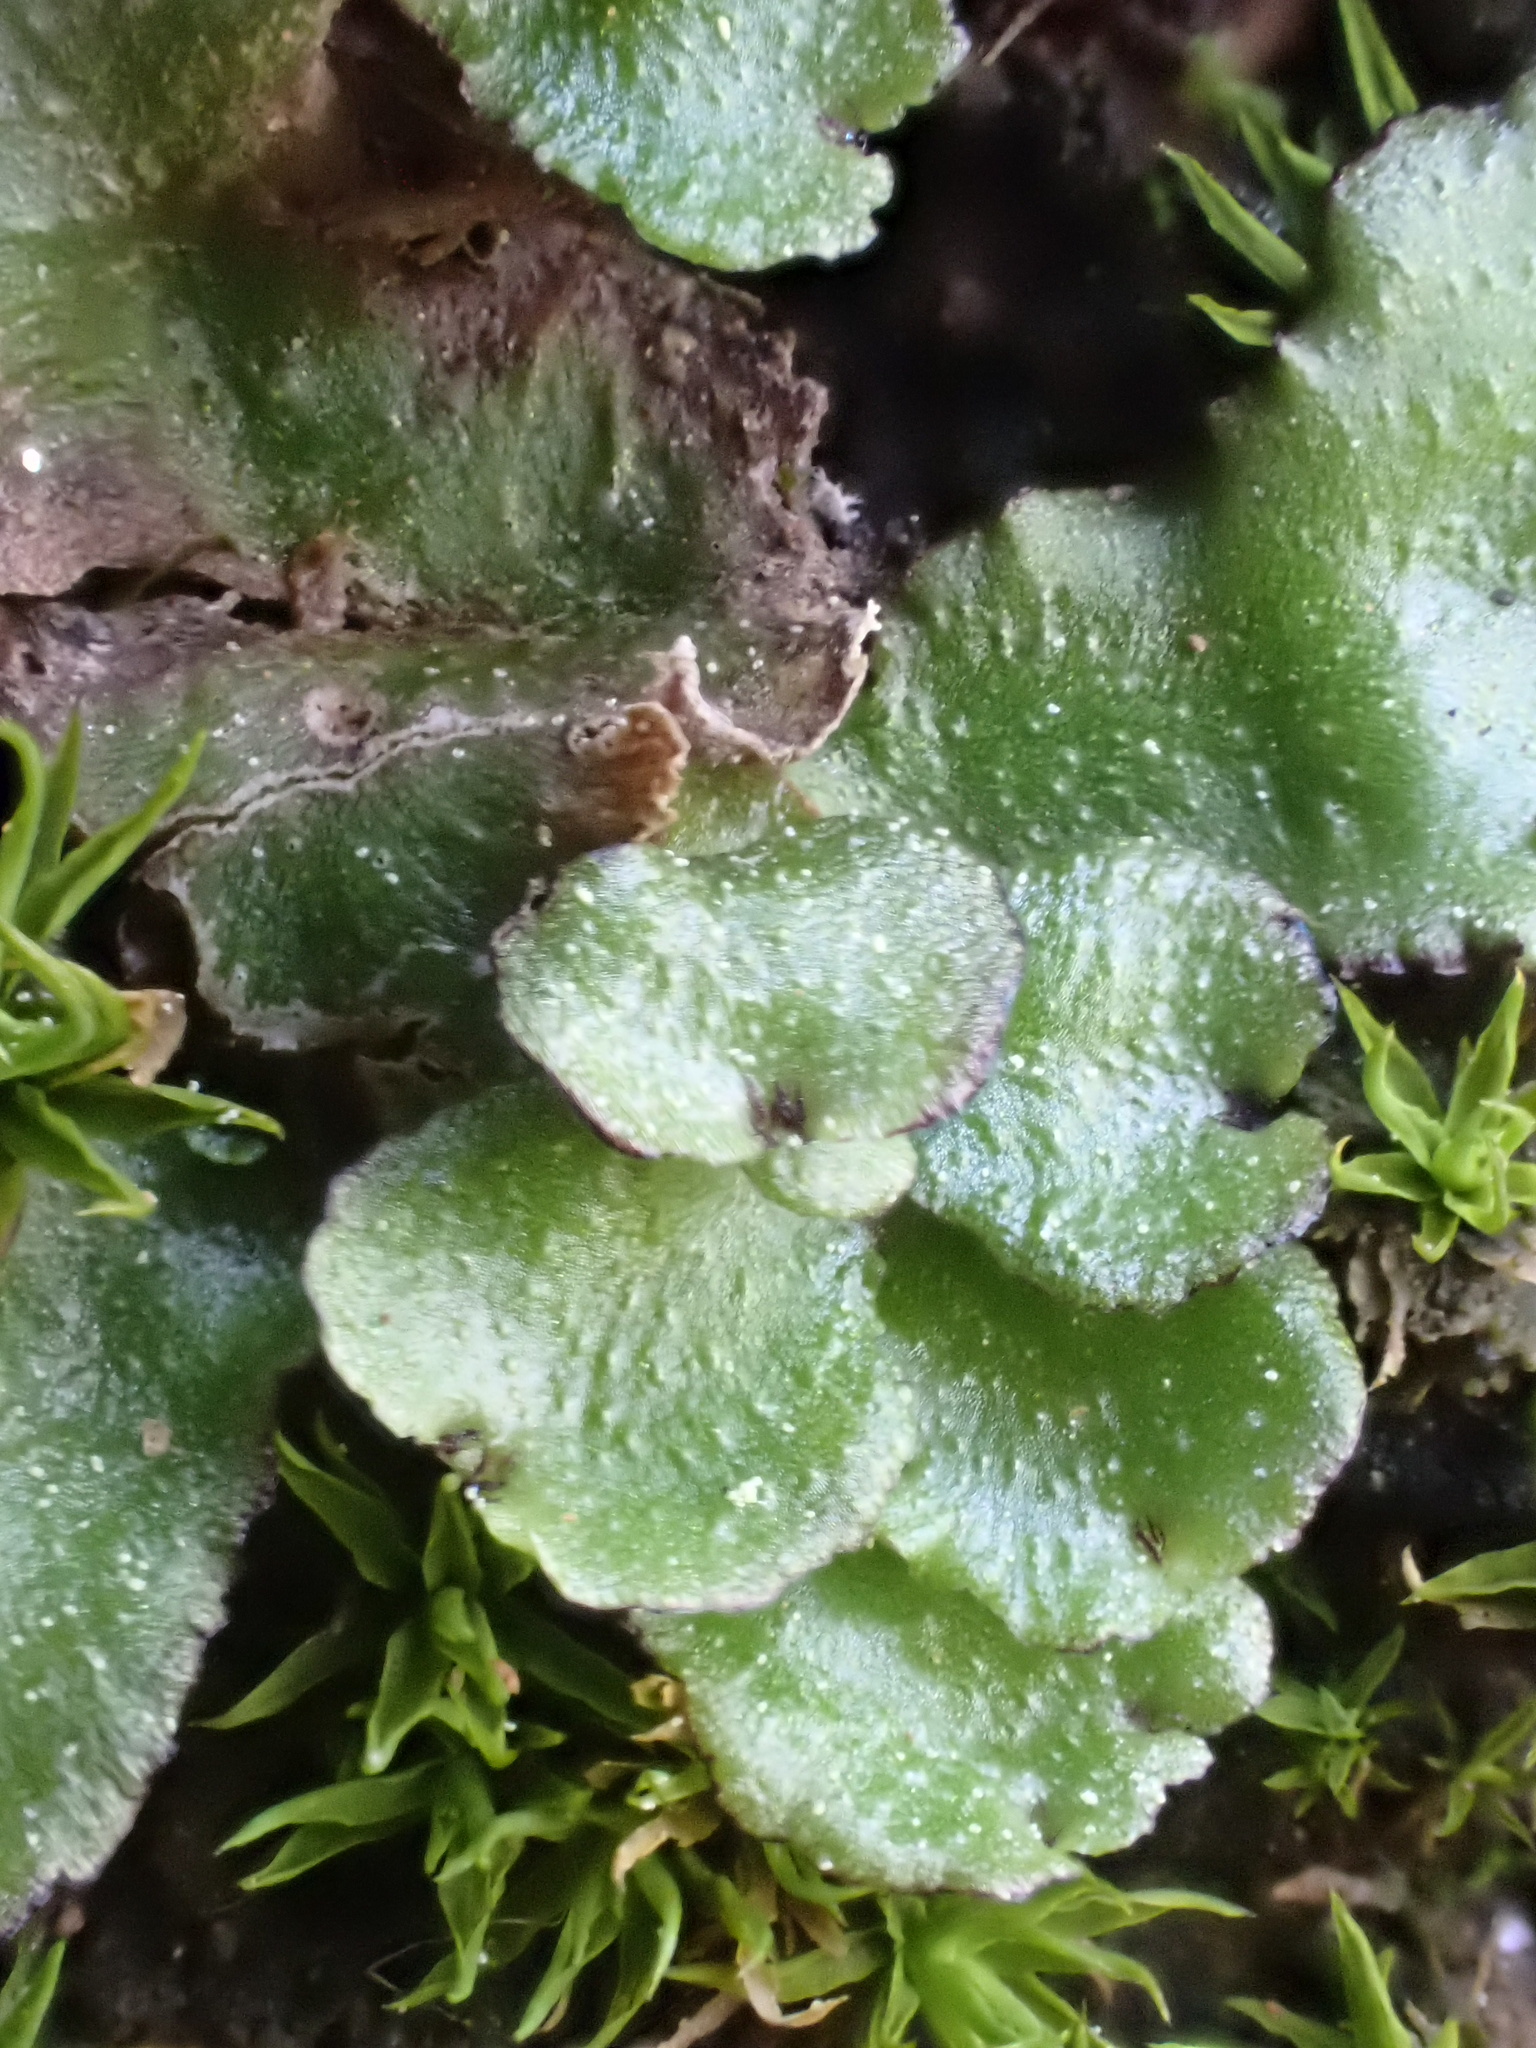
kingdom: Plantae
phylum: Marchantiophyta
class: Marchantiopsida
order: Marchantiales
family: Aytoniaceae
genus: Reboulia
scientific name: Reboulia hemisphaerica
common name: Purple-margined liverwort
